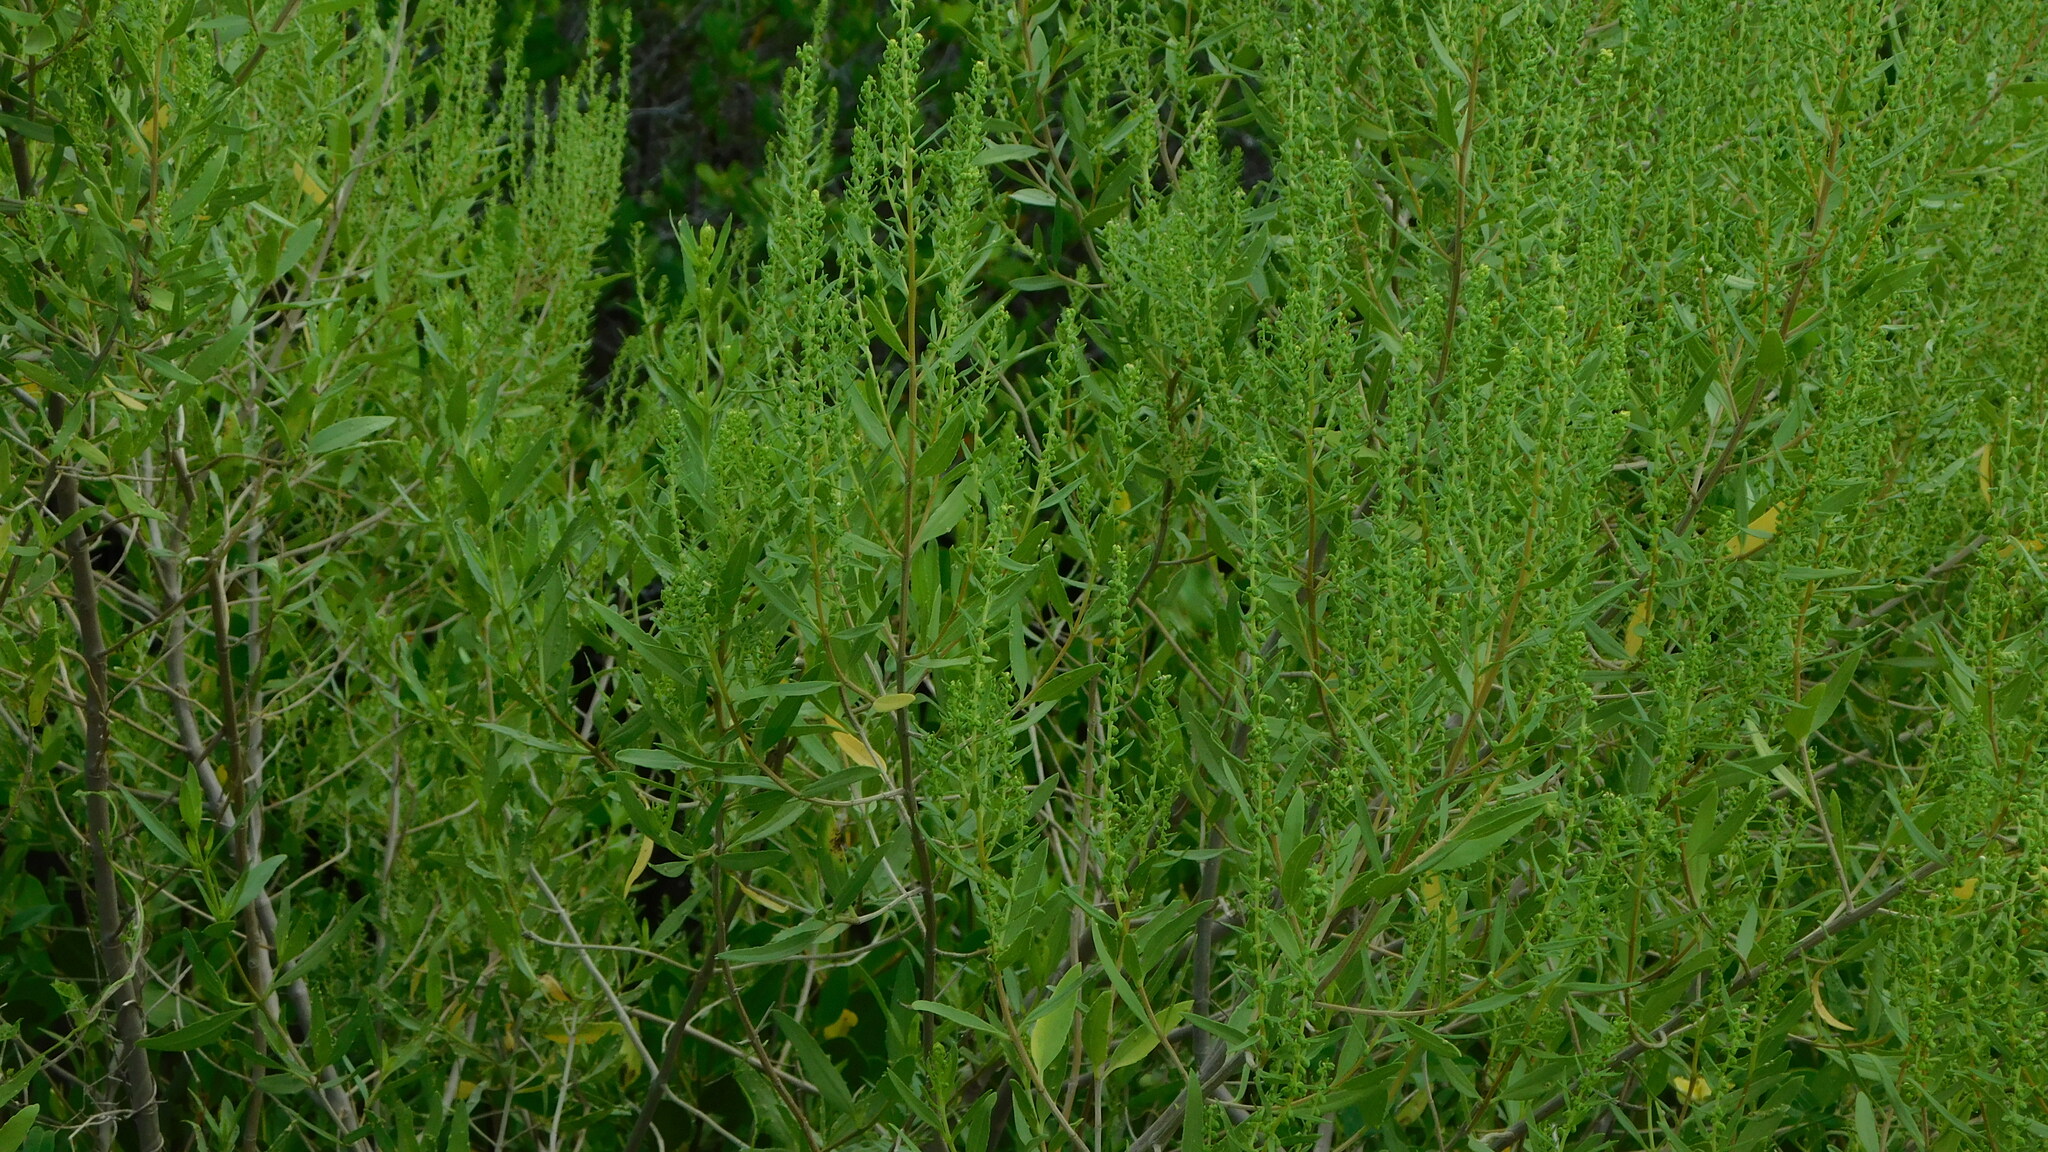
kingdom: Plantae
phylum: Tracheophyta
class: Magnoliopsida
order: Asterales
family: Asteraceae
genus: Iva
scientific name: Iva frutescens
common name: Big-leaved marsh-elder
